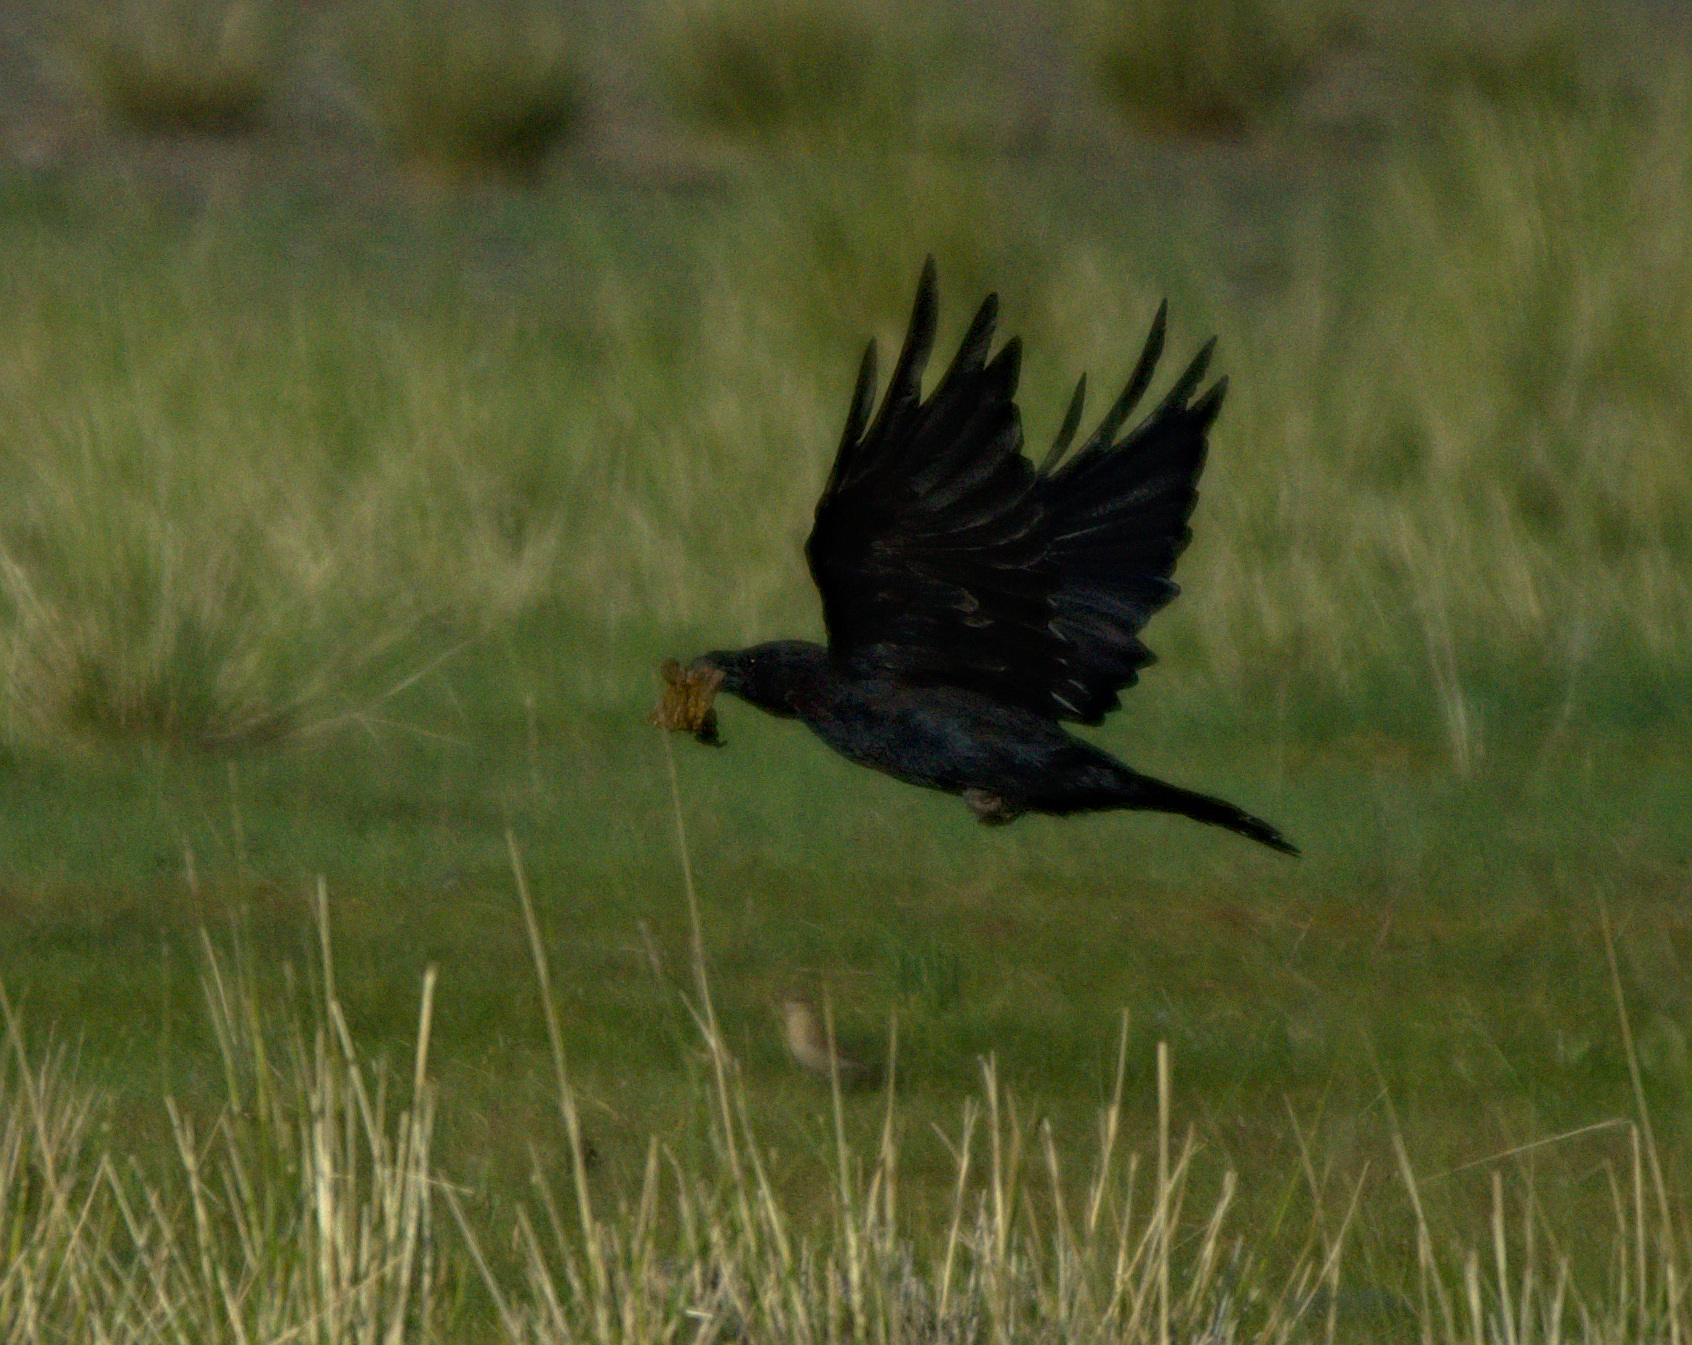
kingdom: Animalia
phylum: Chordata
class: Aves
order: Passeriformes
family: Corvidae
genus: Corvus
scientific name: Corvus corax
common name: Common raven
